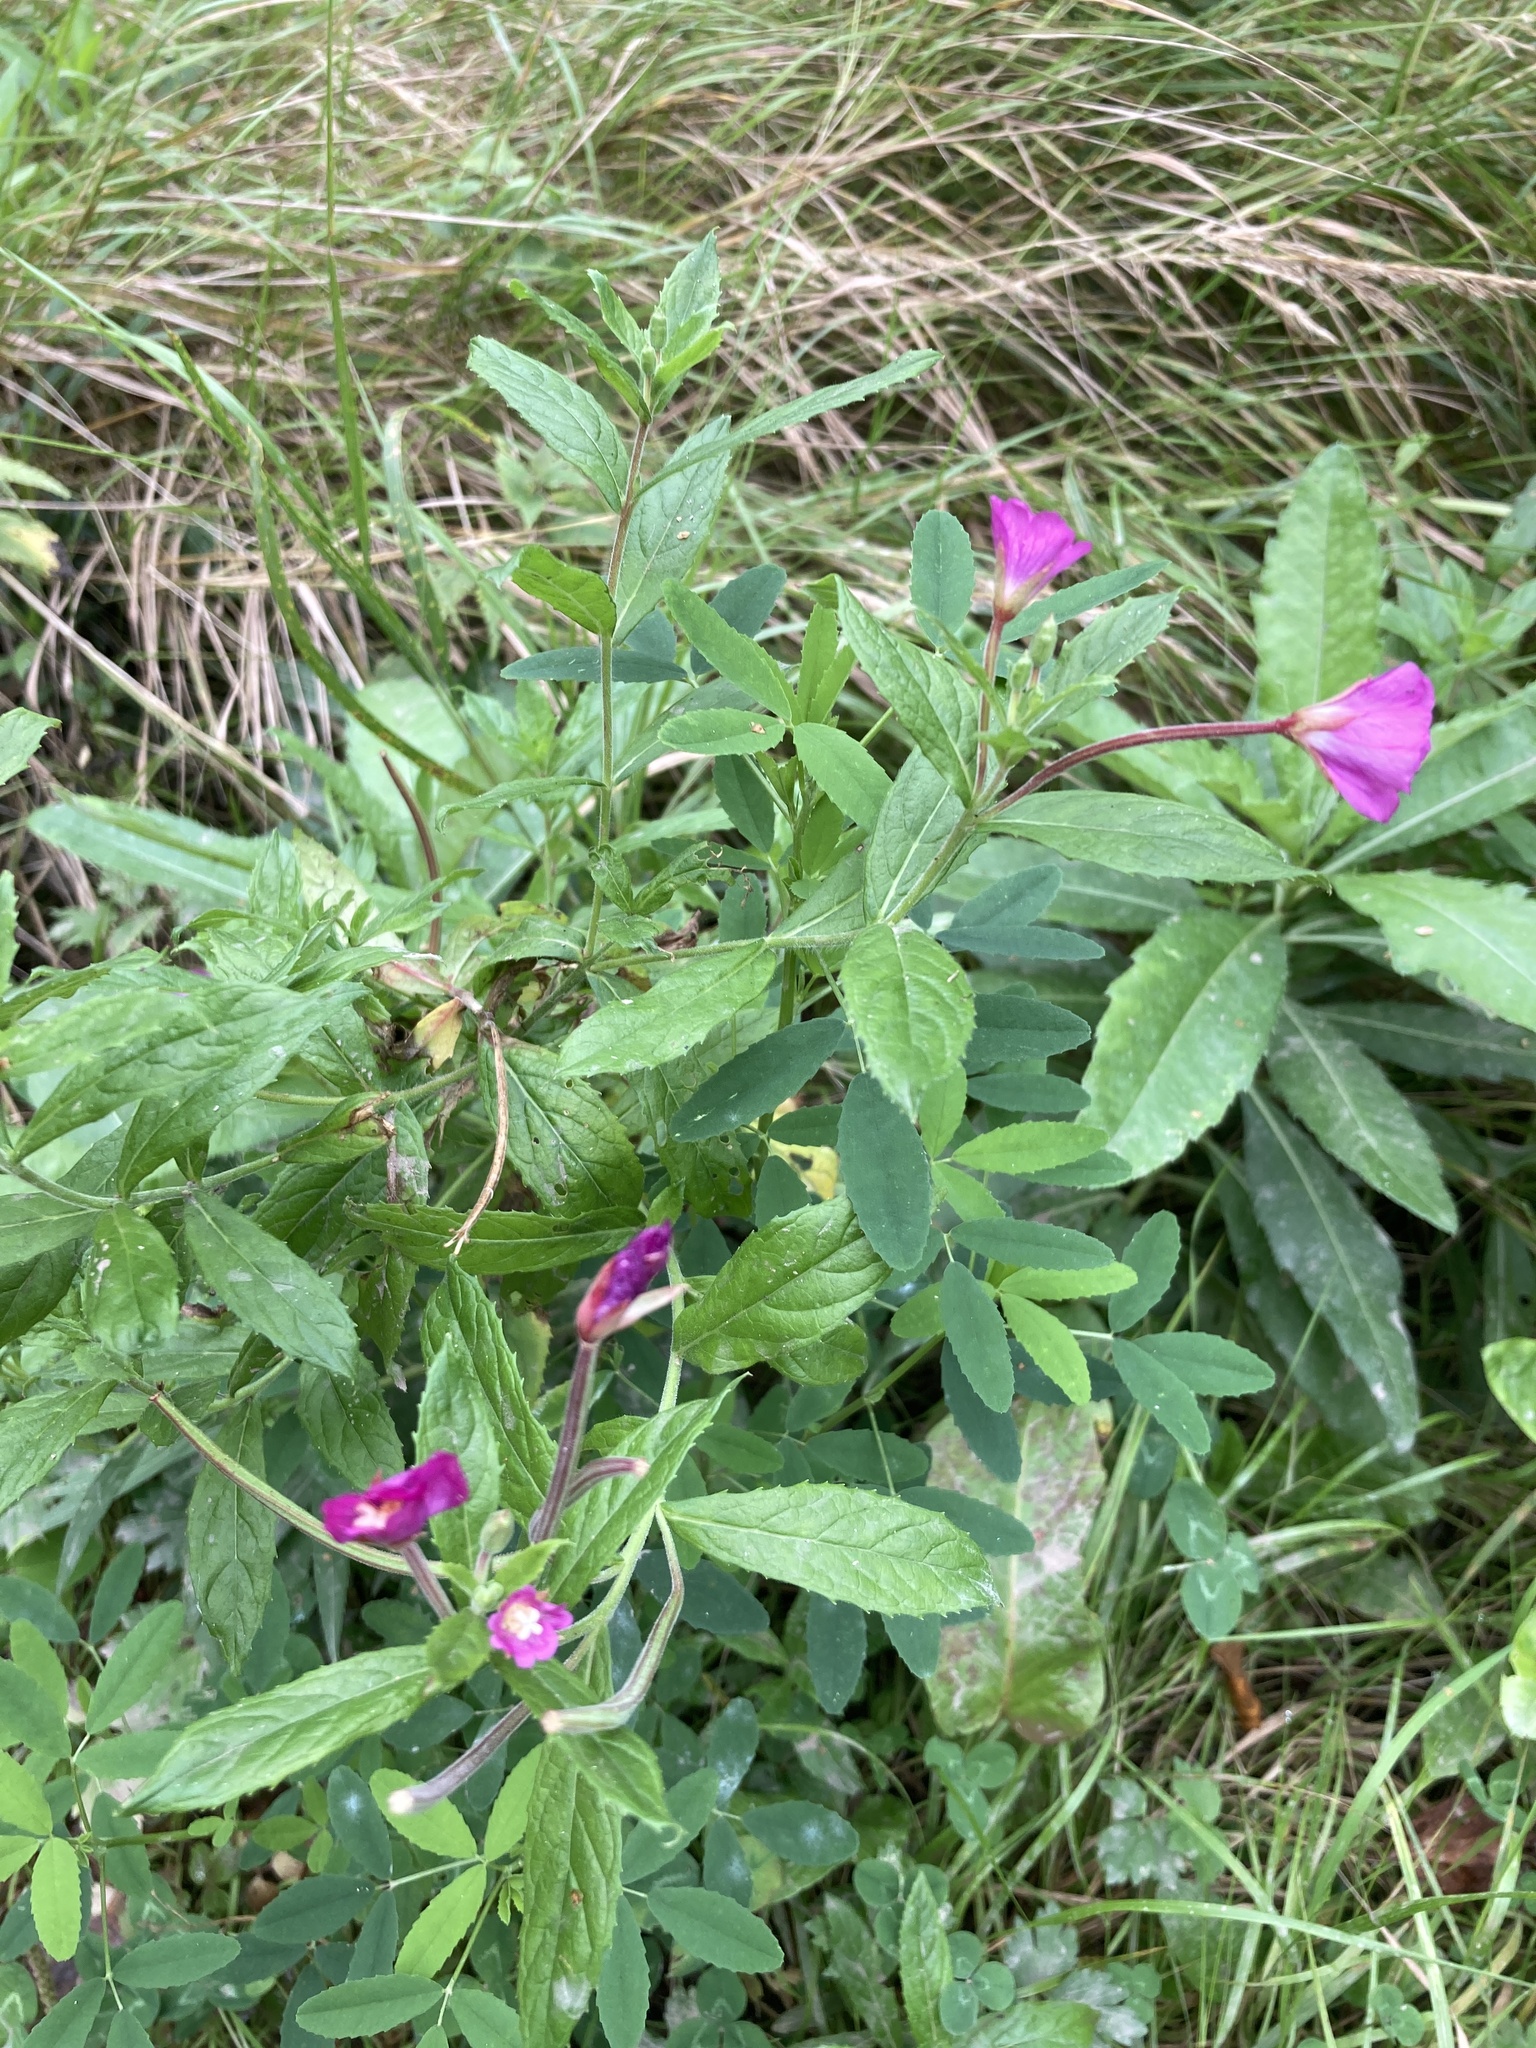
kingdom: Plantae
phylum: Tracheophyta
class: Magnoliopsida
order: Myrtales
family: Onagraceae
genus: Epilobium
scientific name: Epilobium hirsutum
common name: Great willowherb
